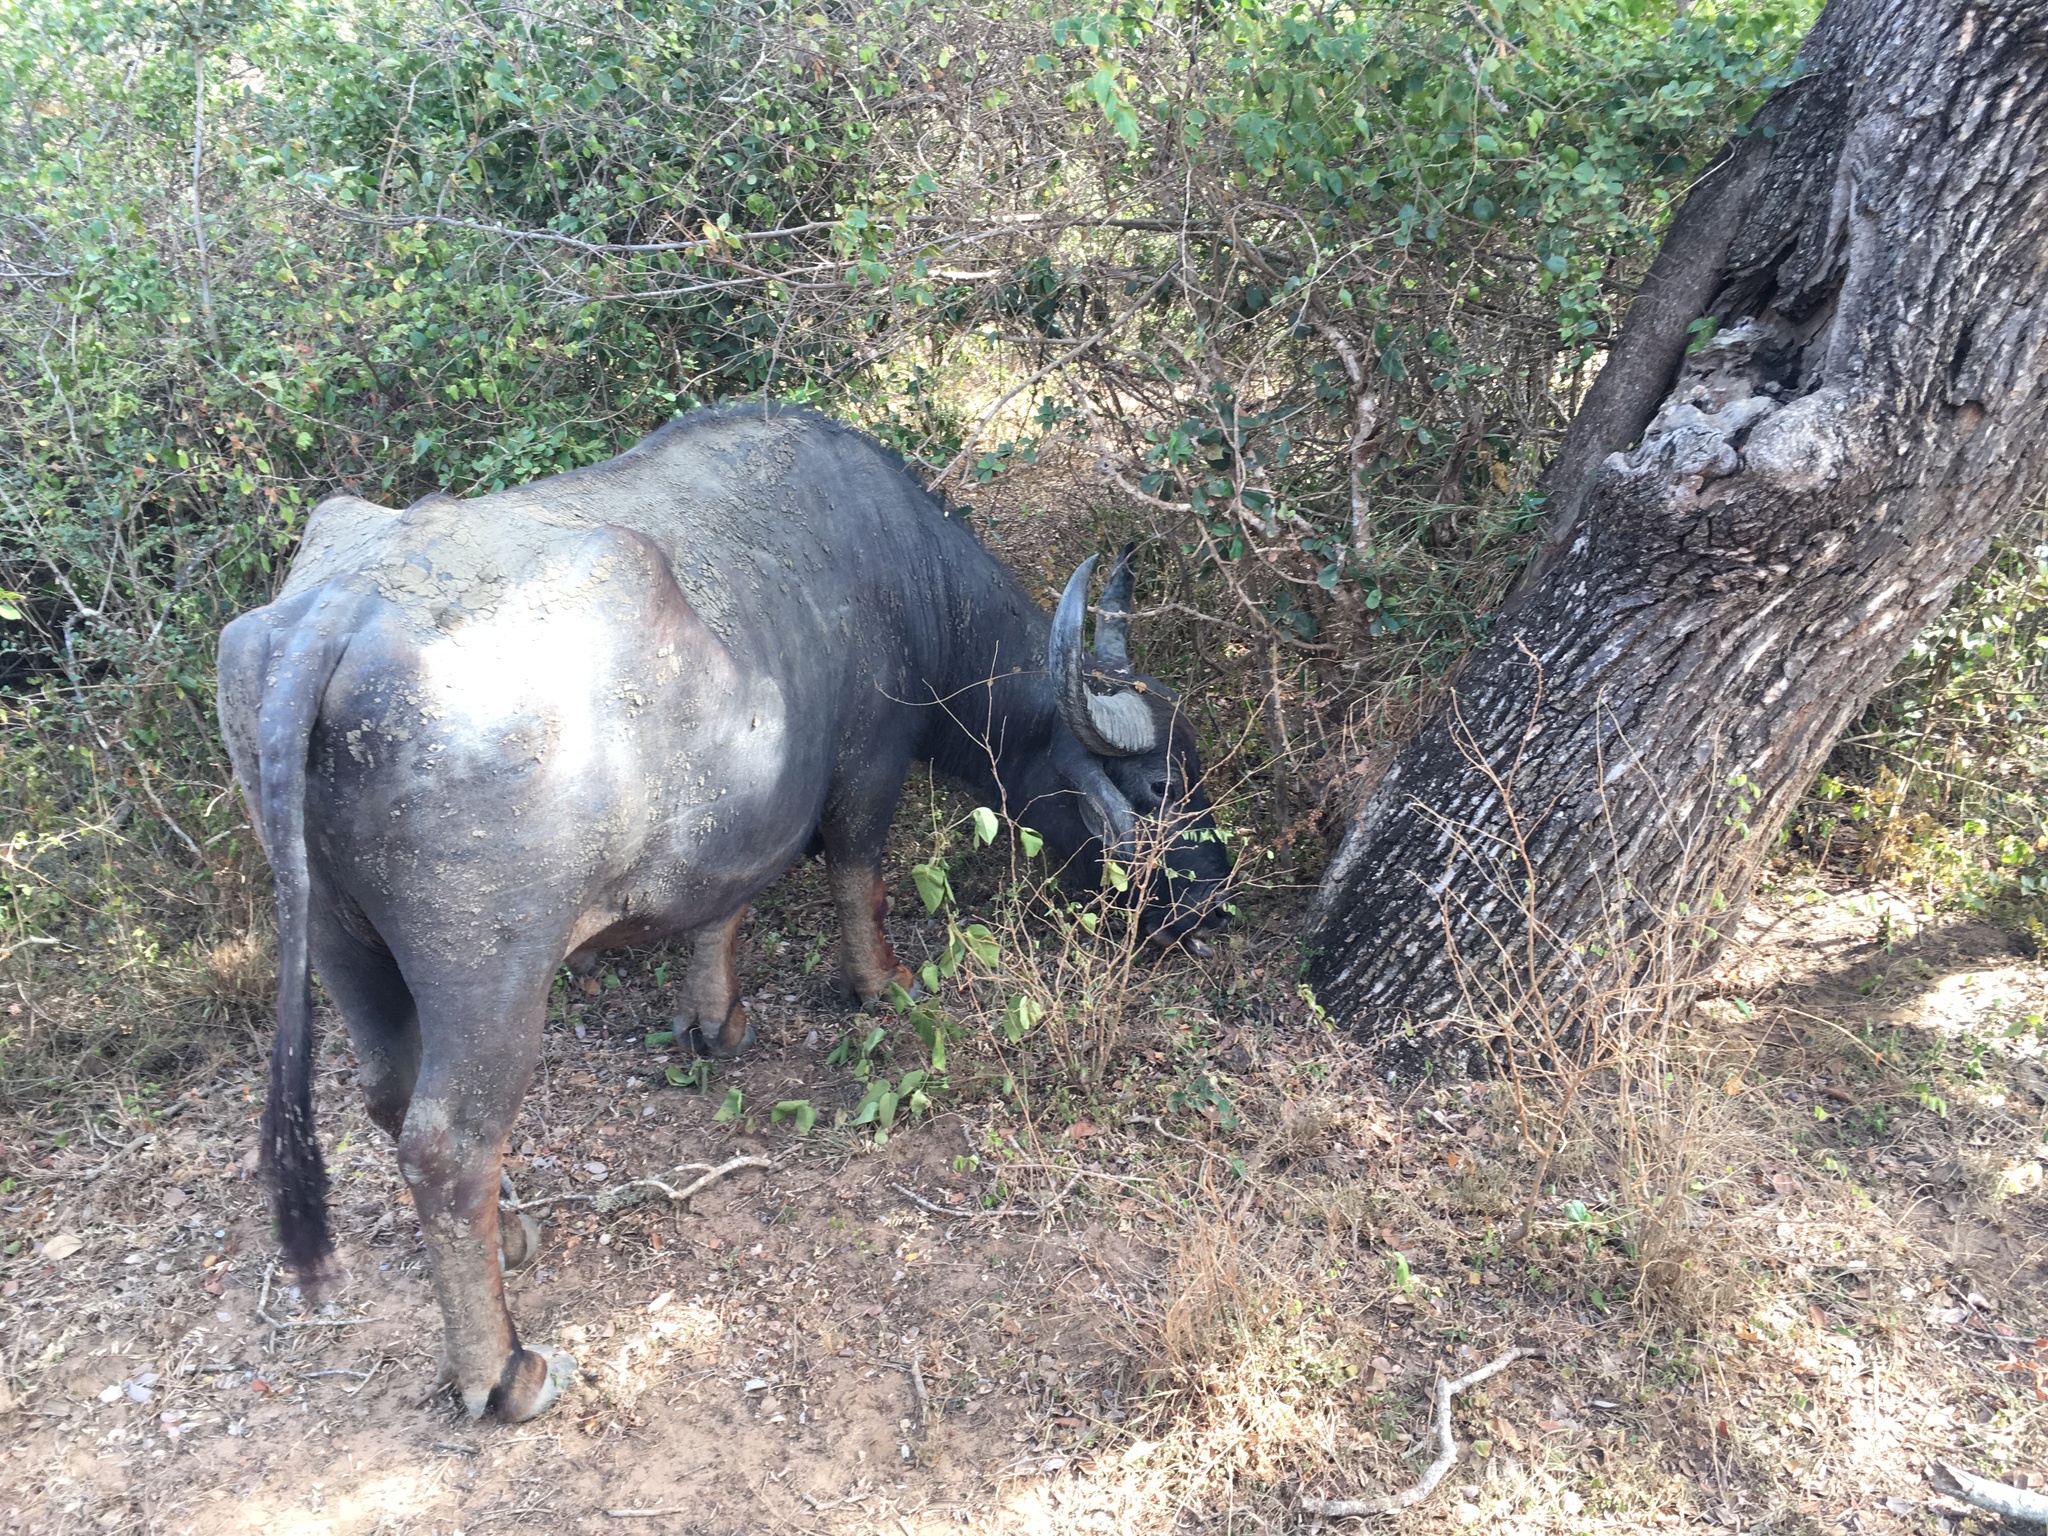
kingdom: Animalia
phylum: Chordata
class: Mammalia
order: Artiodactyla
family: Bovidae
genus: Bubalus
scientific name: Bubalus bubalis
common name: Water buffalo
